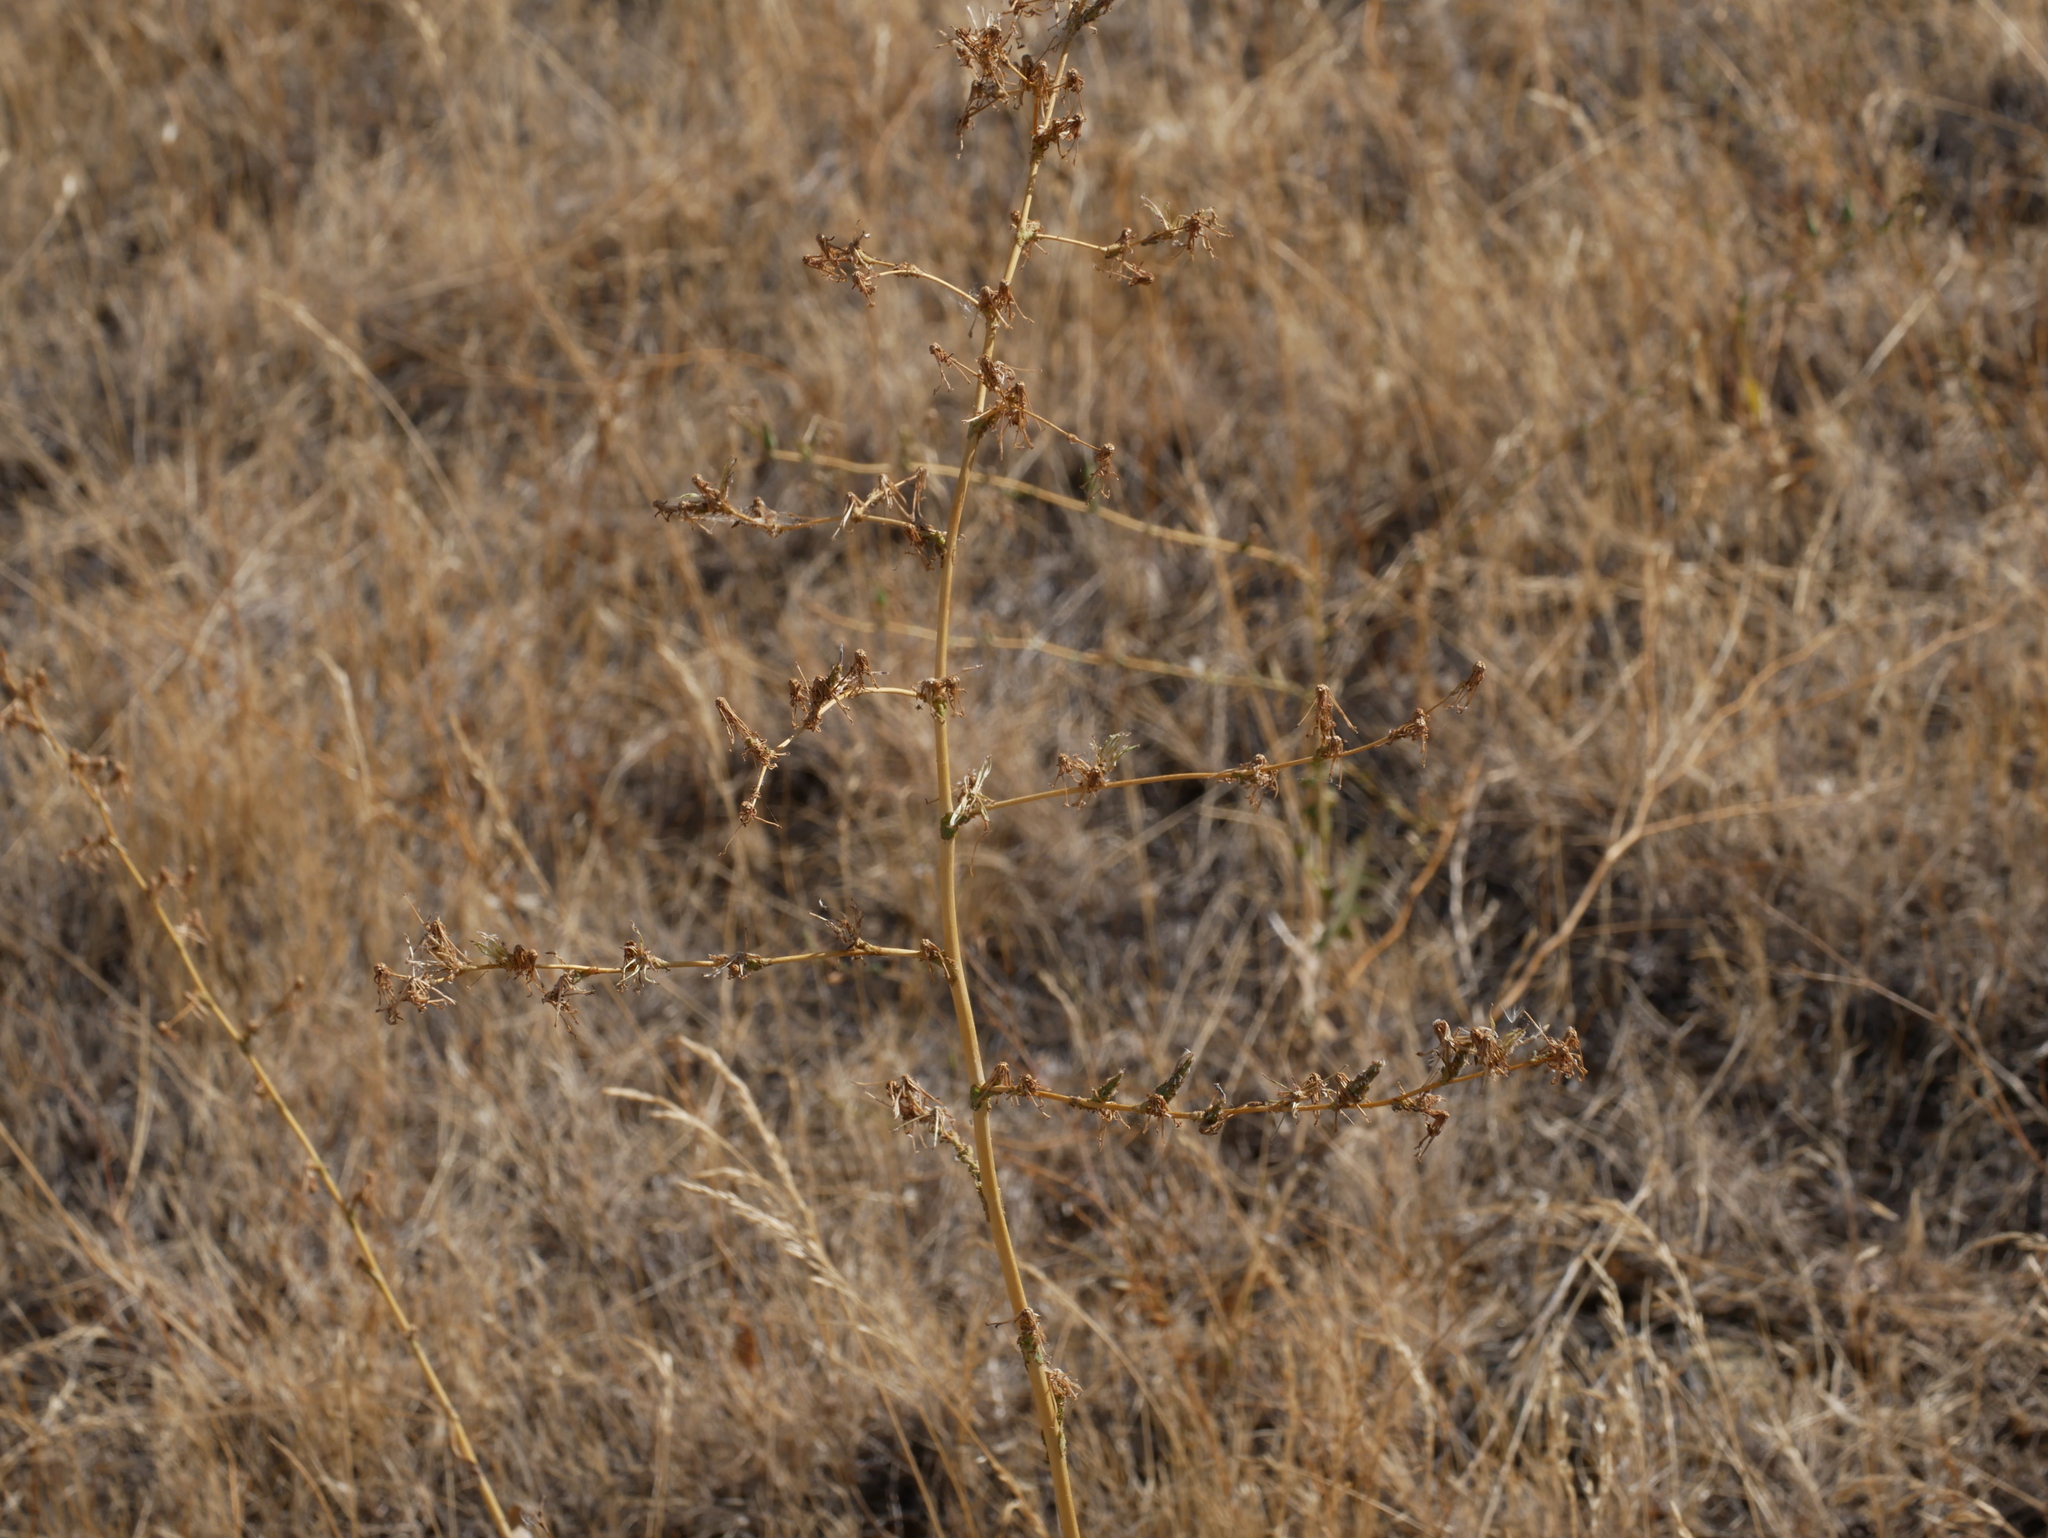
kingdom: Plantae
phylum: Tracheophyta
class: Magnoliopsida
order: Brassicales
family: Brassicaceae
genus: Lepidium
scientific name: Lepidium perfoliatum
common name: Perfoliate pepperwort
